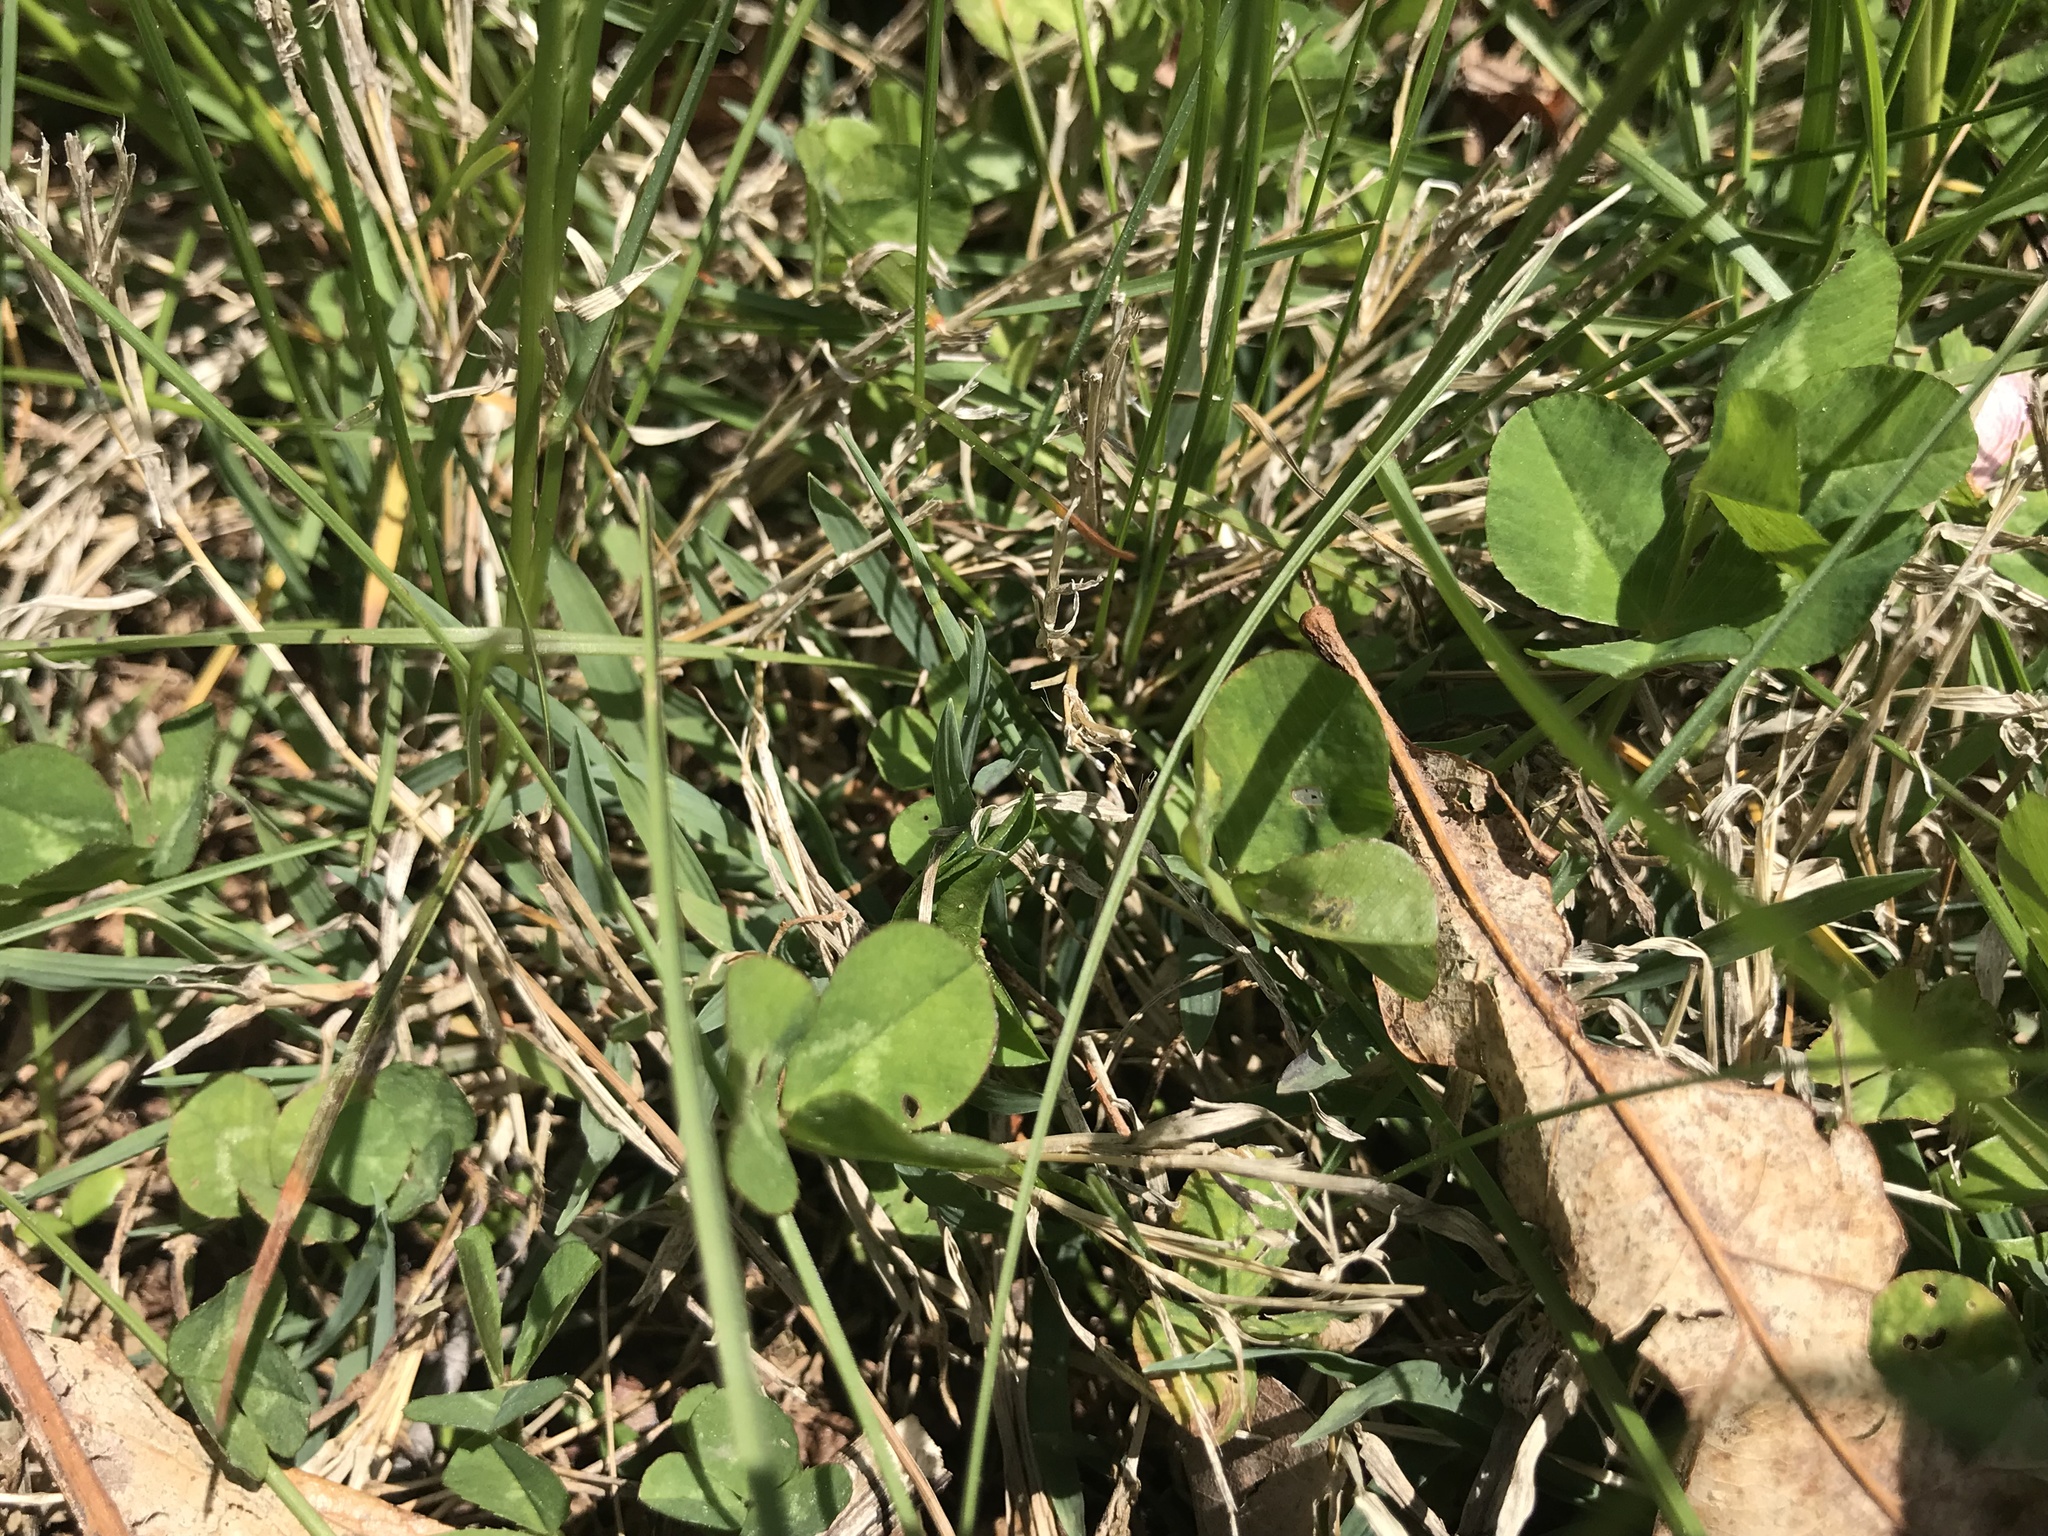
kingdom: Plantae
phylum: Tracheophyta
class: Magnoliopsida
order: Fabales
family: Fabaceae
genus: Trifolium
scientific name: Trifolium repens
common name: White clover
